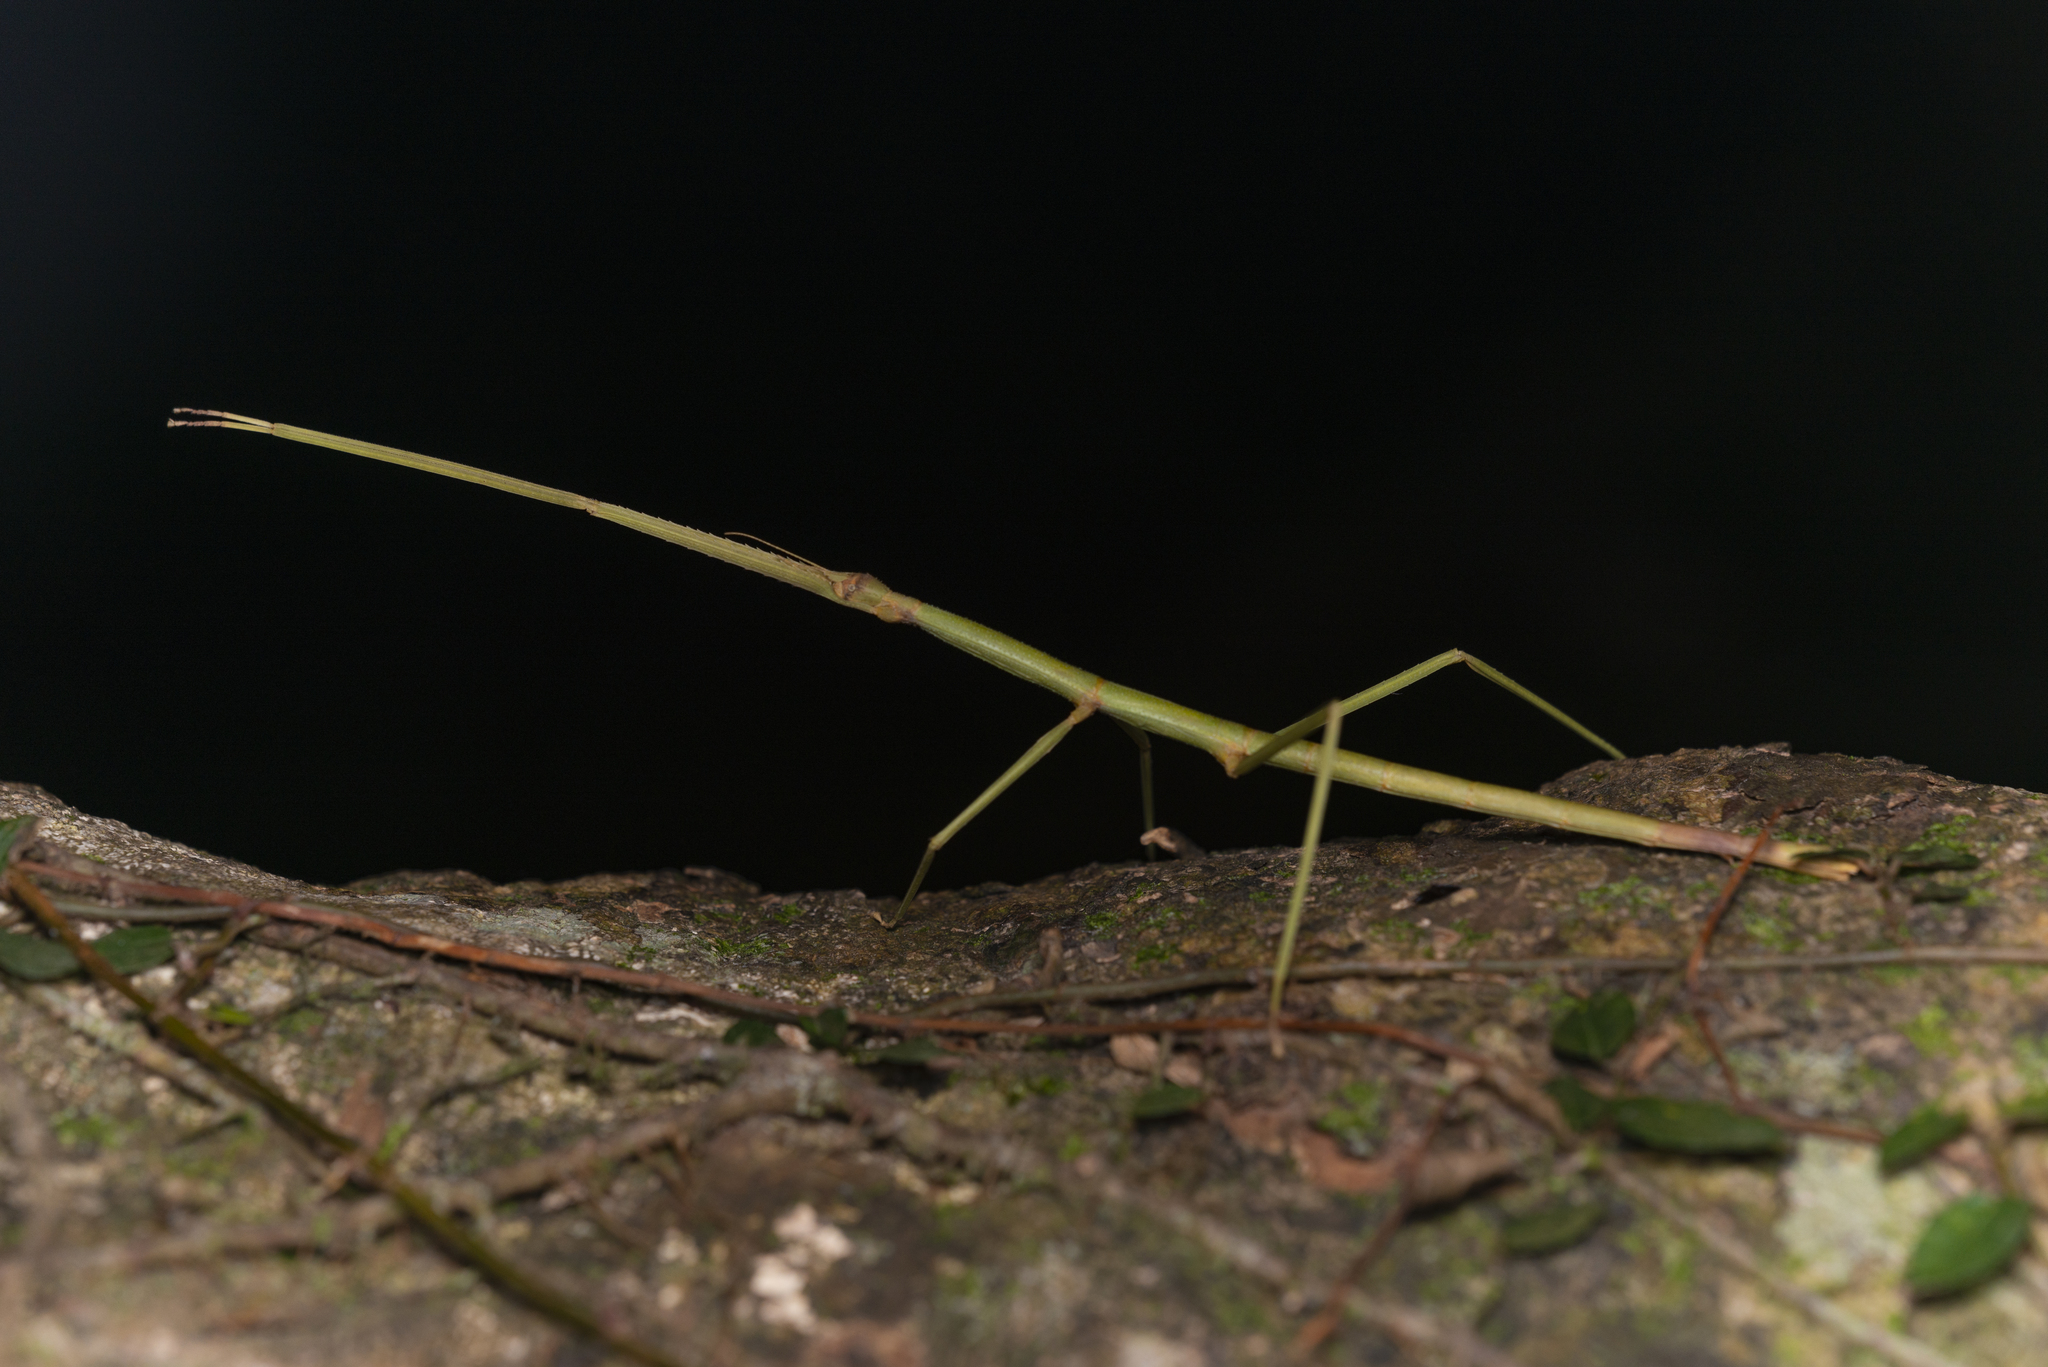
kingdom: Animalia
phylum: Arthropoda
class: Insecta
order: Phasmida
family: Phasmatidae
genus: Ramulus
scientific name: Ramulus rotundus
